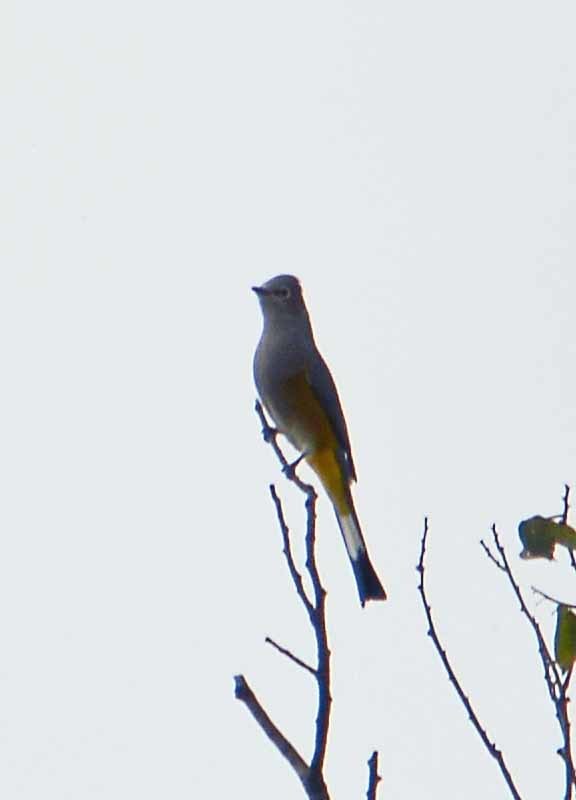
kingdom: Animalia
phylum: Chordata
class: Aves
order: Passeriformes
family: Ptilogonatidae
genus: Ptilogonys
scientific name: Ptilogonys cinereus
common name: Gray silky-flycatcher
